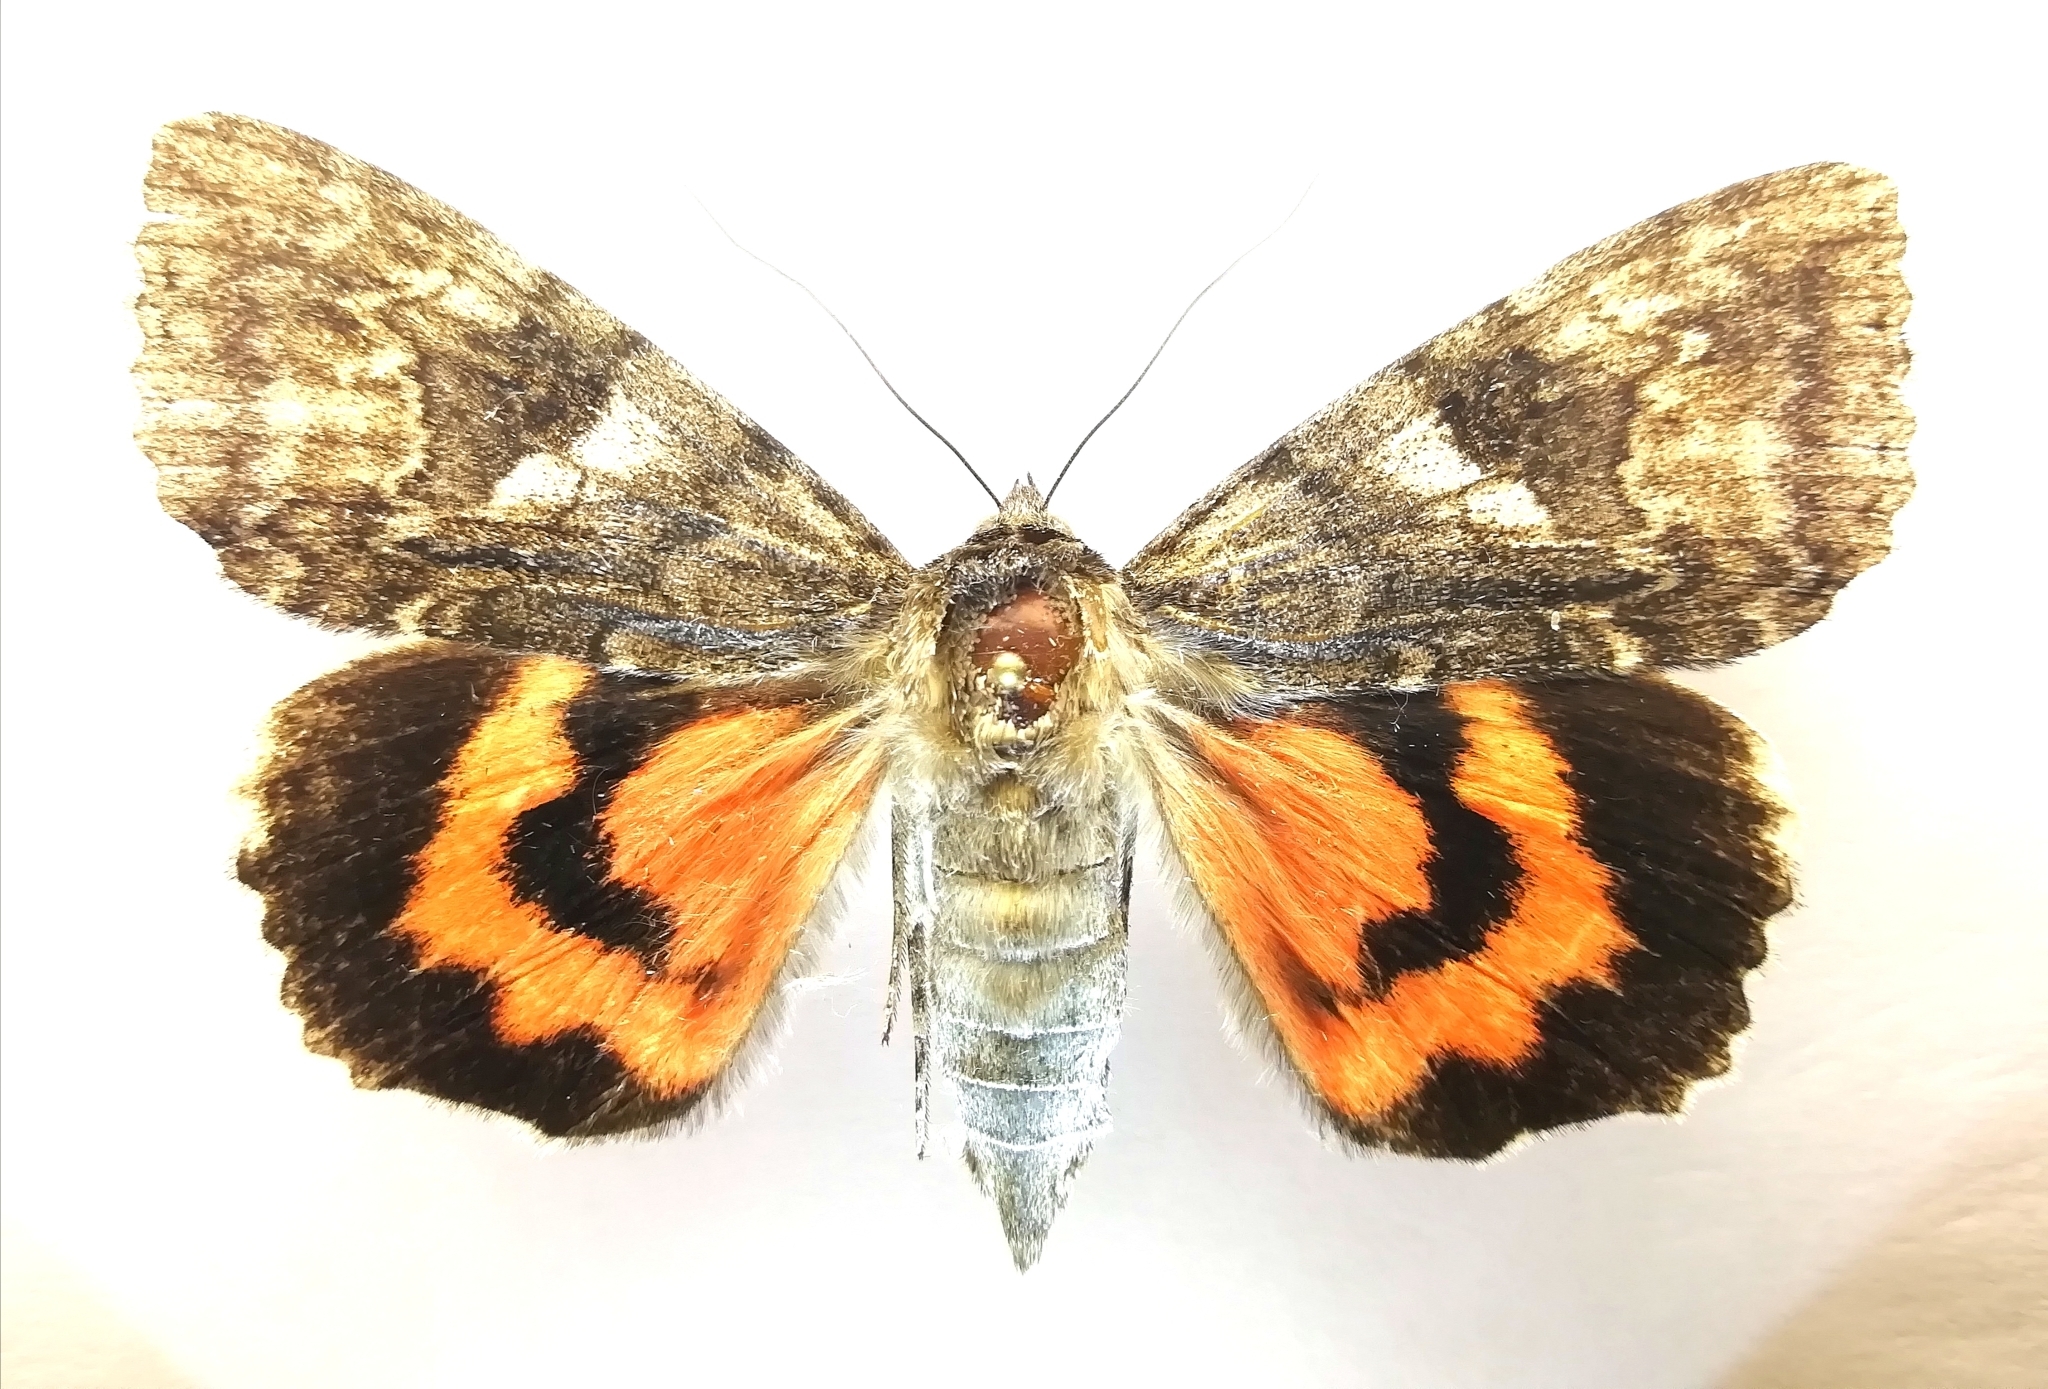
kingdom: Animalia
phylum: Arthropoda
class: Insecta
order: Lepidoptera
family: Erebidae
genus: Catocala
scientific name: Catocala nupta
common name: Red underwing
